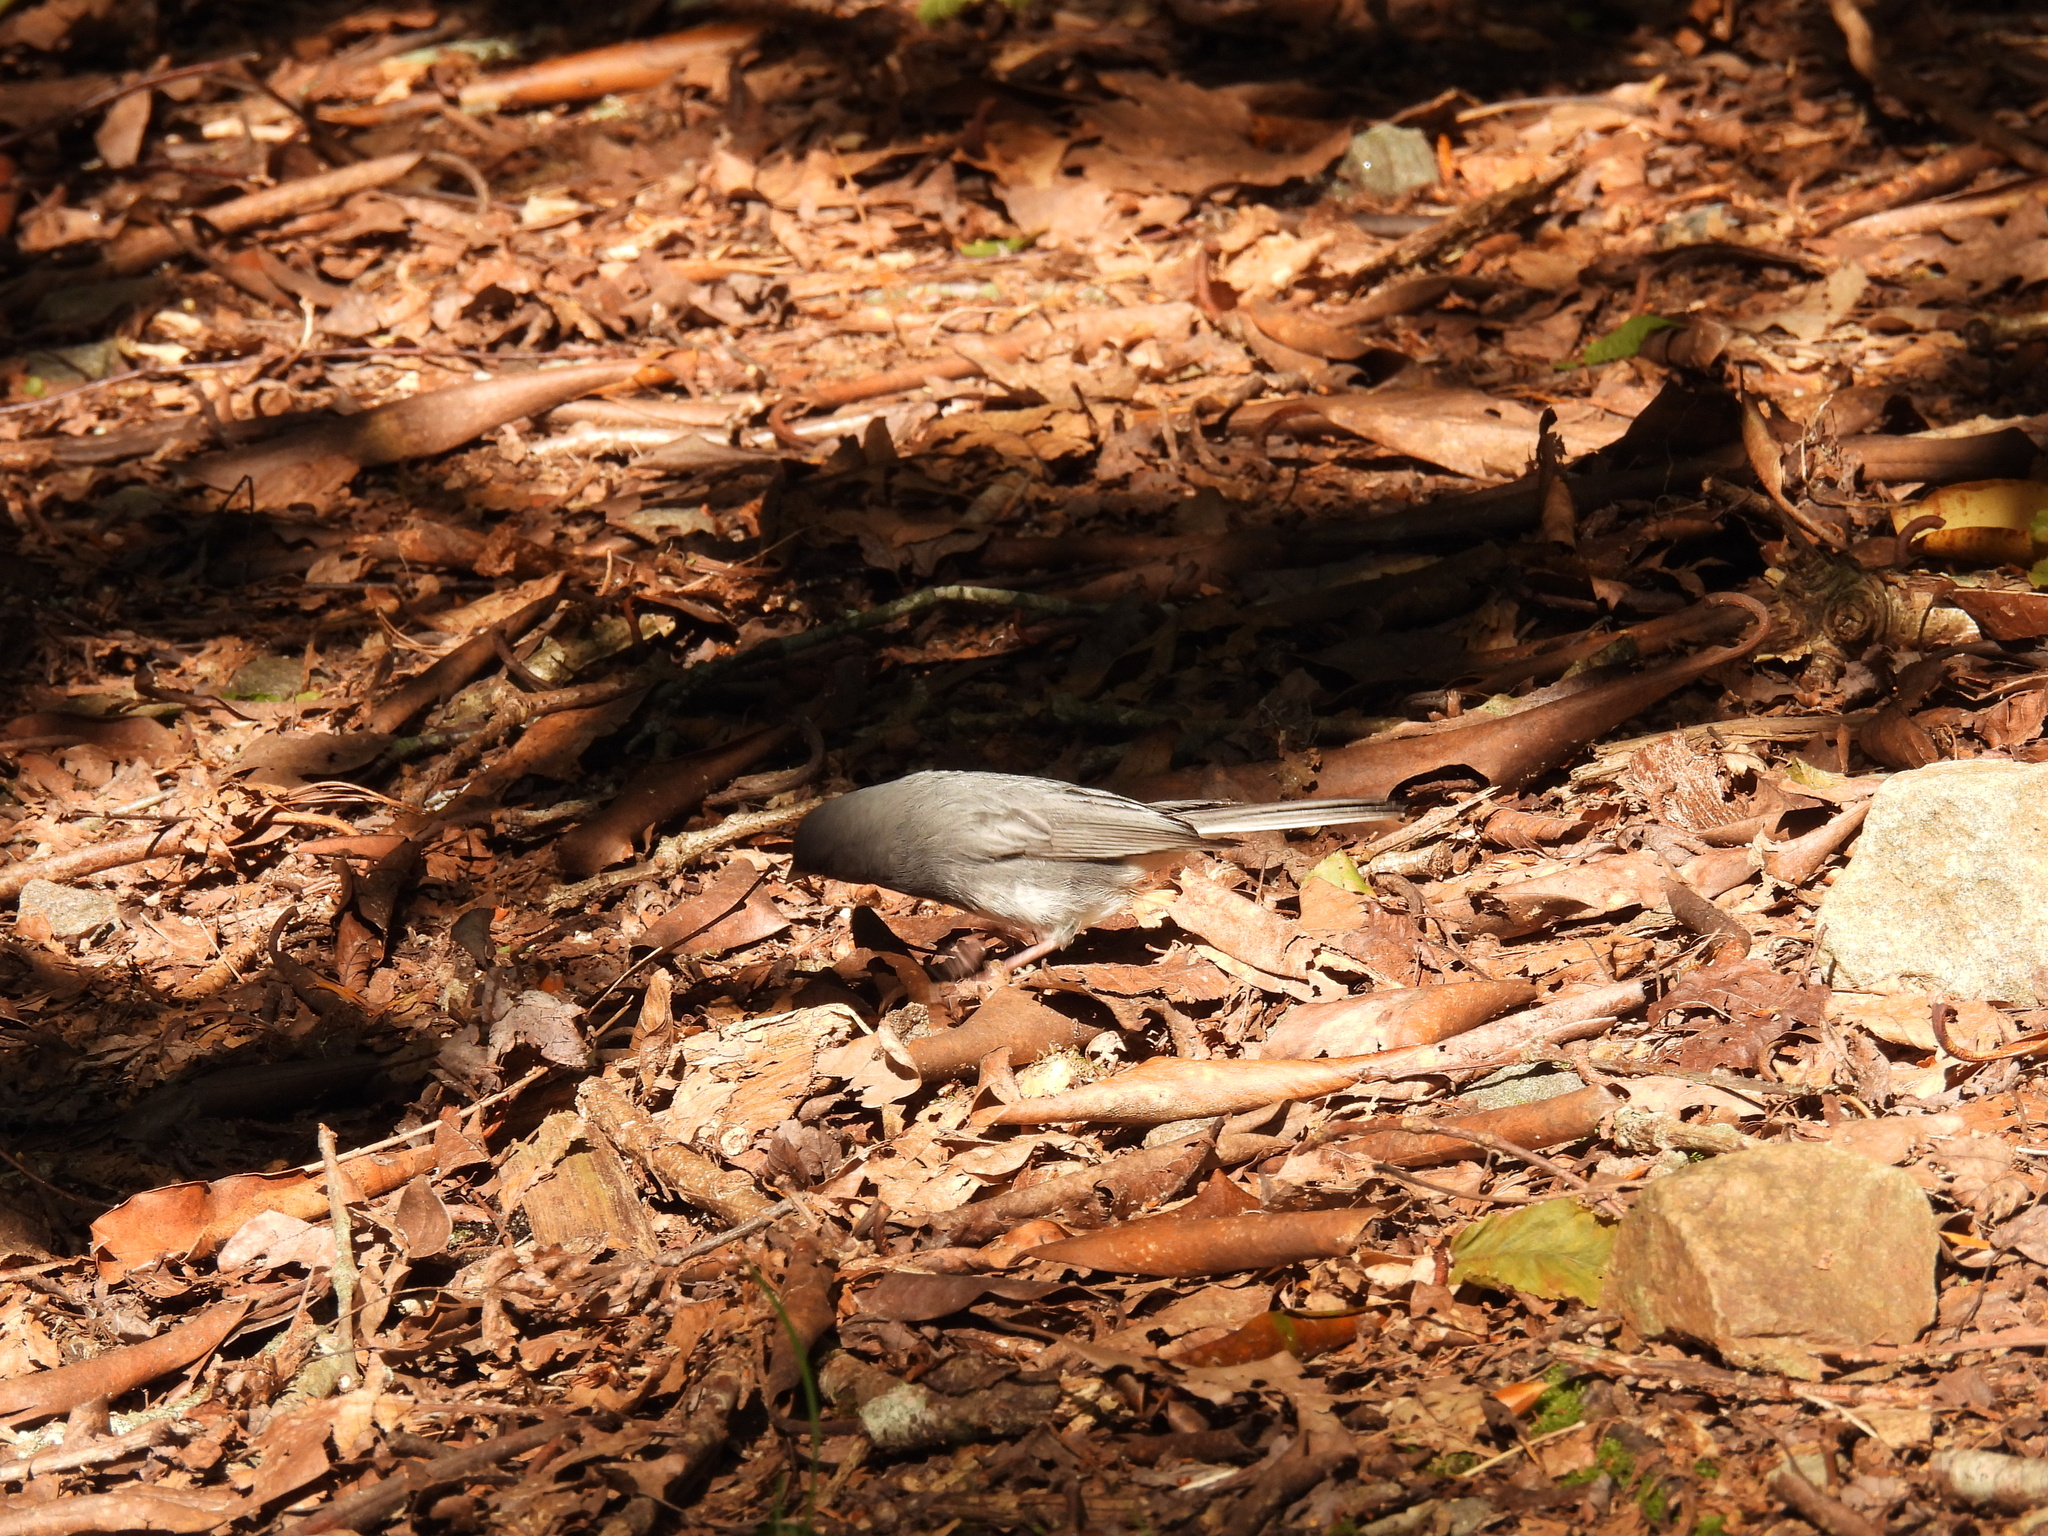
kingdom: Animalia
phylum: Chordata
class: Aves
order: Passeriformes
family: Passerellidae
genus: Junco
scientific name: Junco hyemalis
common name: Dark-eyed junco
